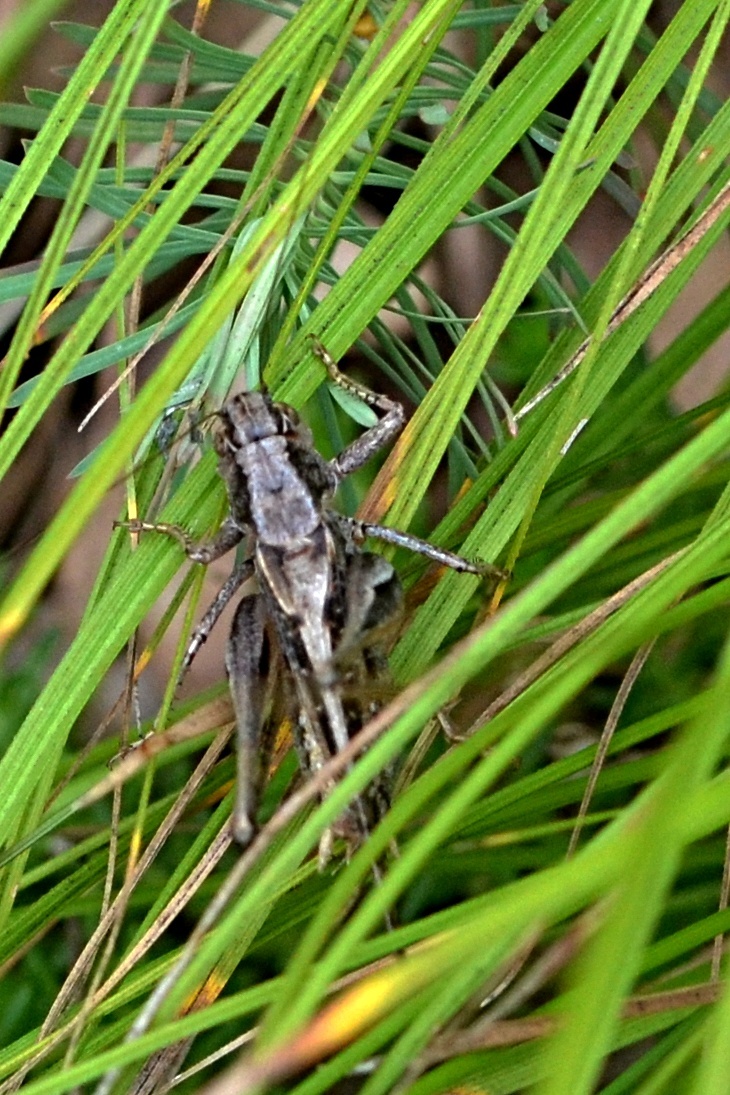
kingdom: Animalia
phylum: Arthropoda
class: Insecta
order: Orthoptera
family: Tettigoniidae
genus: Platycleis
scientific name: Platycleis albopunctata
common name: Grey bush-cricket
